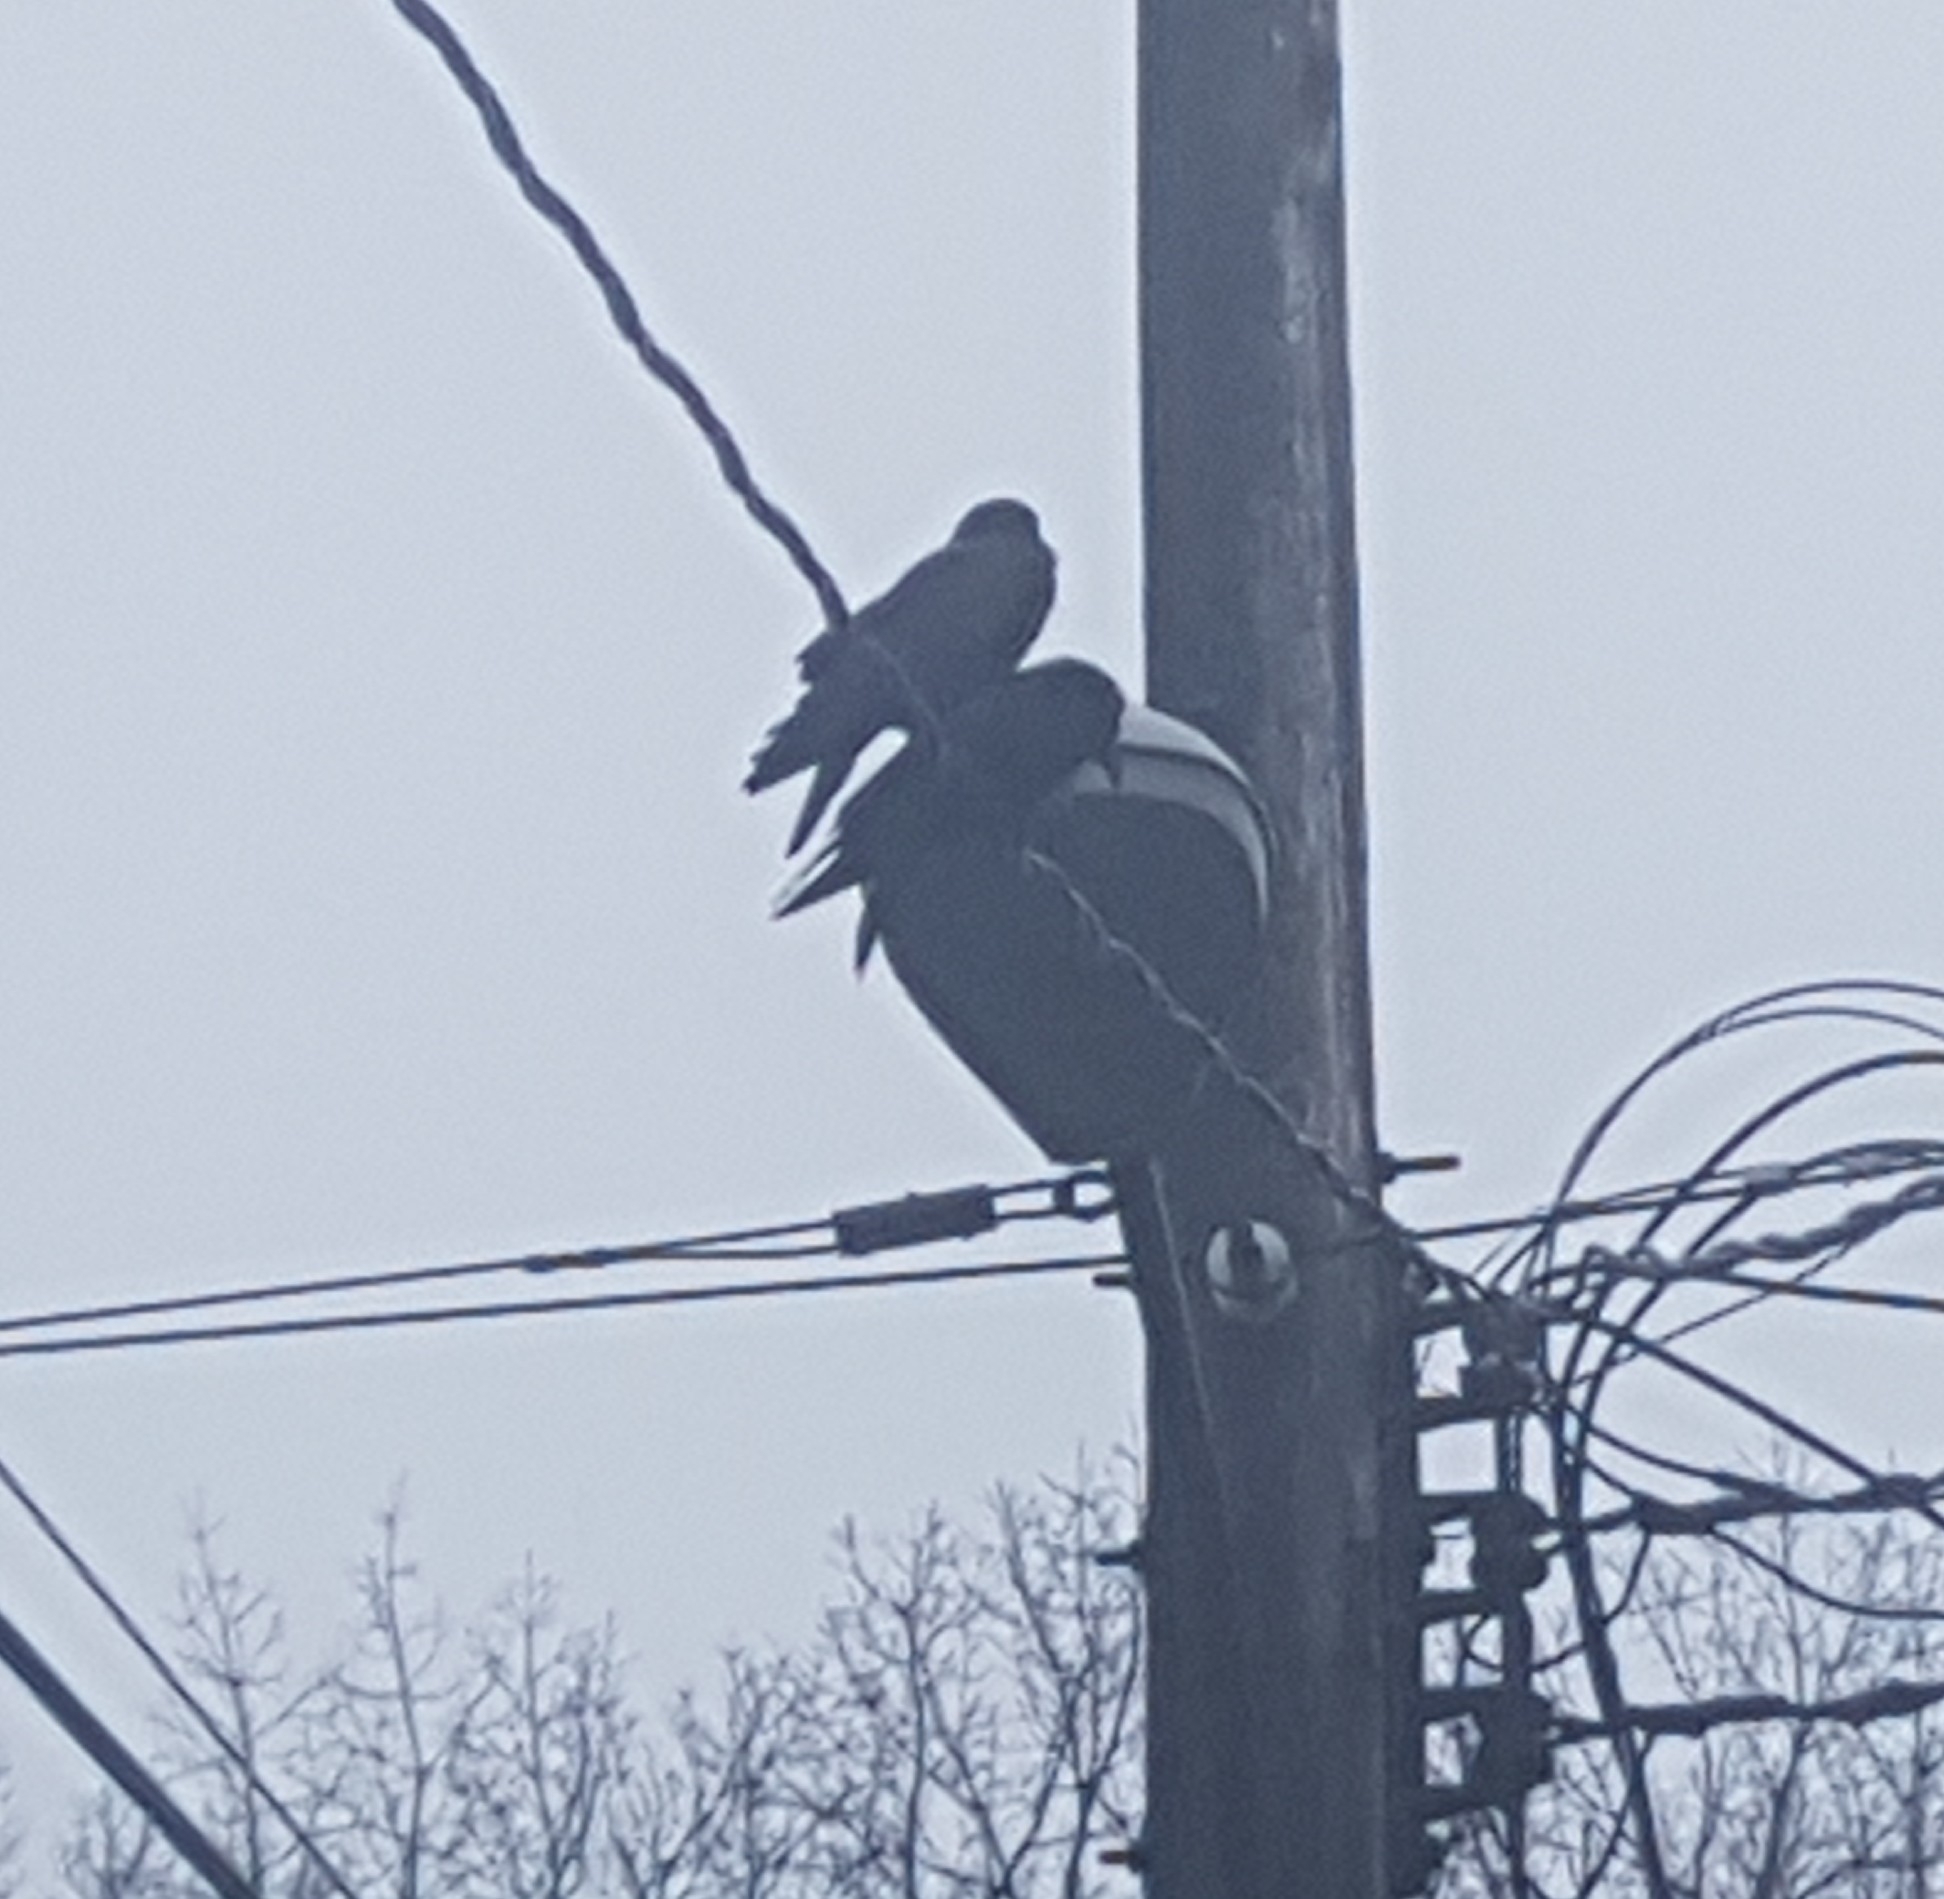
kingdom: Animalia
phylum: Chordata
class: Aves
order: Passeriformes
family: Corvidae
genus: Corvus
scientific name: Corvus brachyrhynchos
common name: American crow
